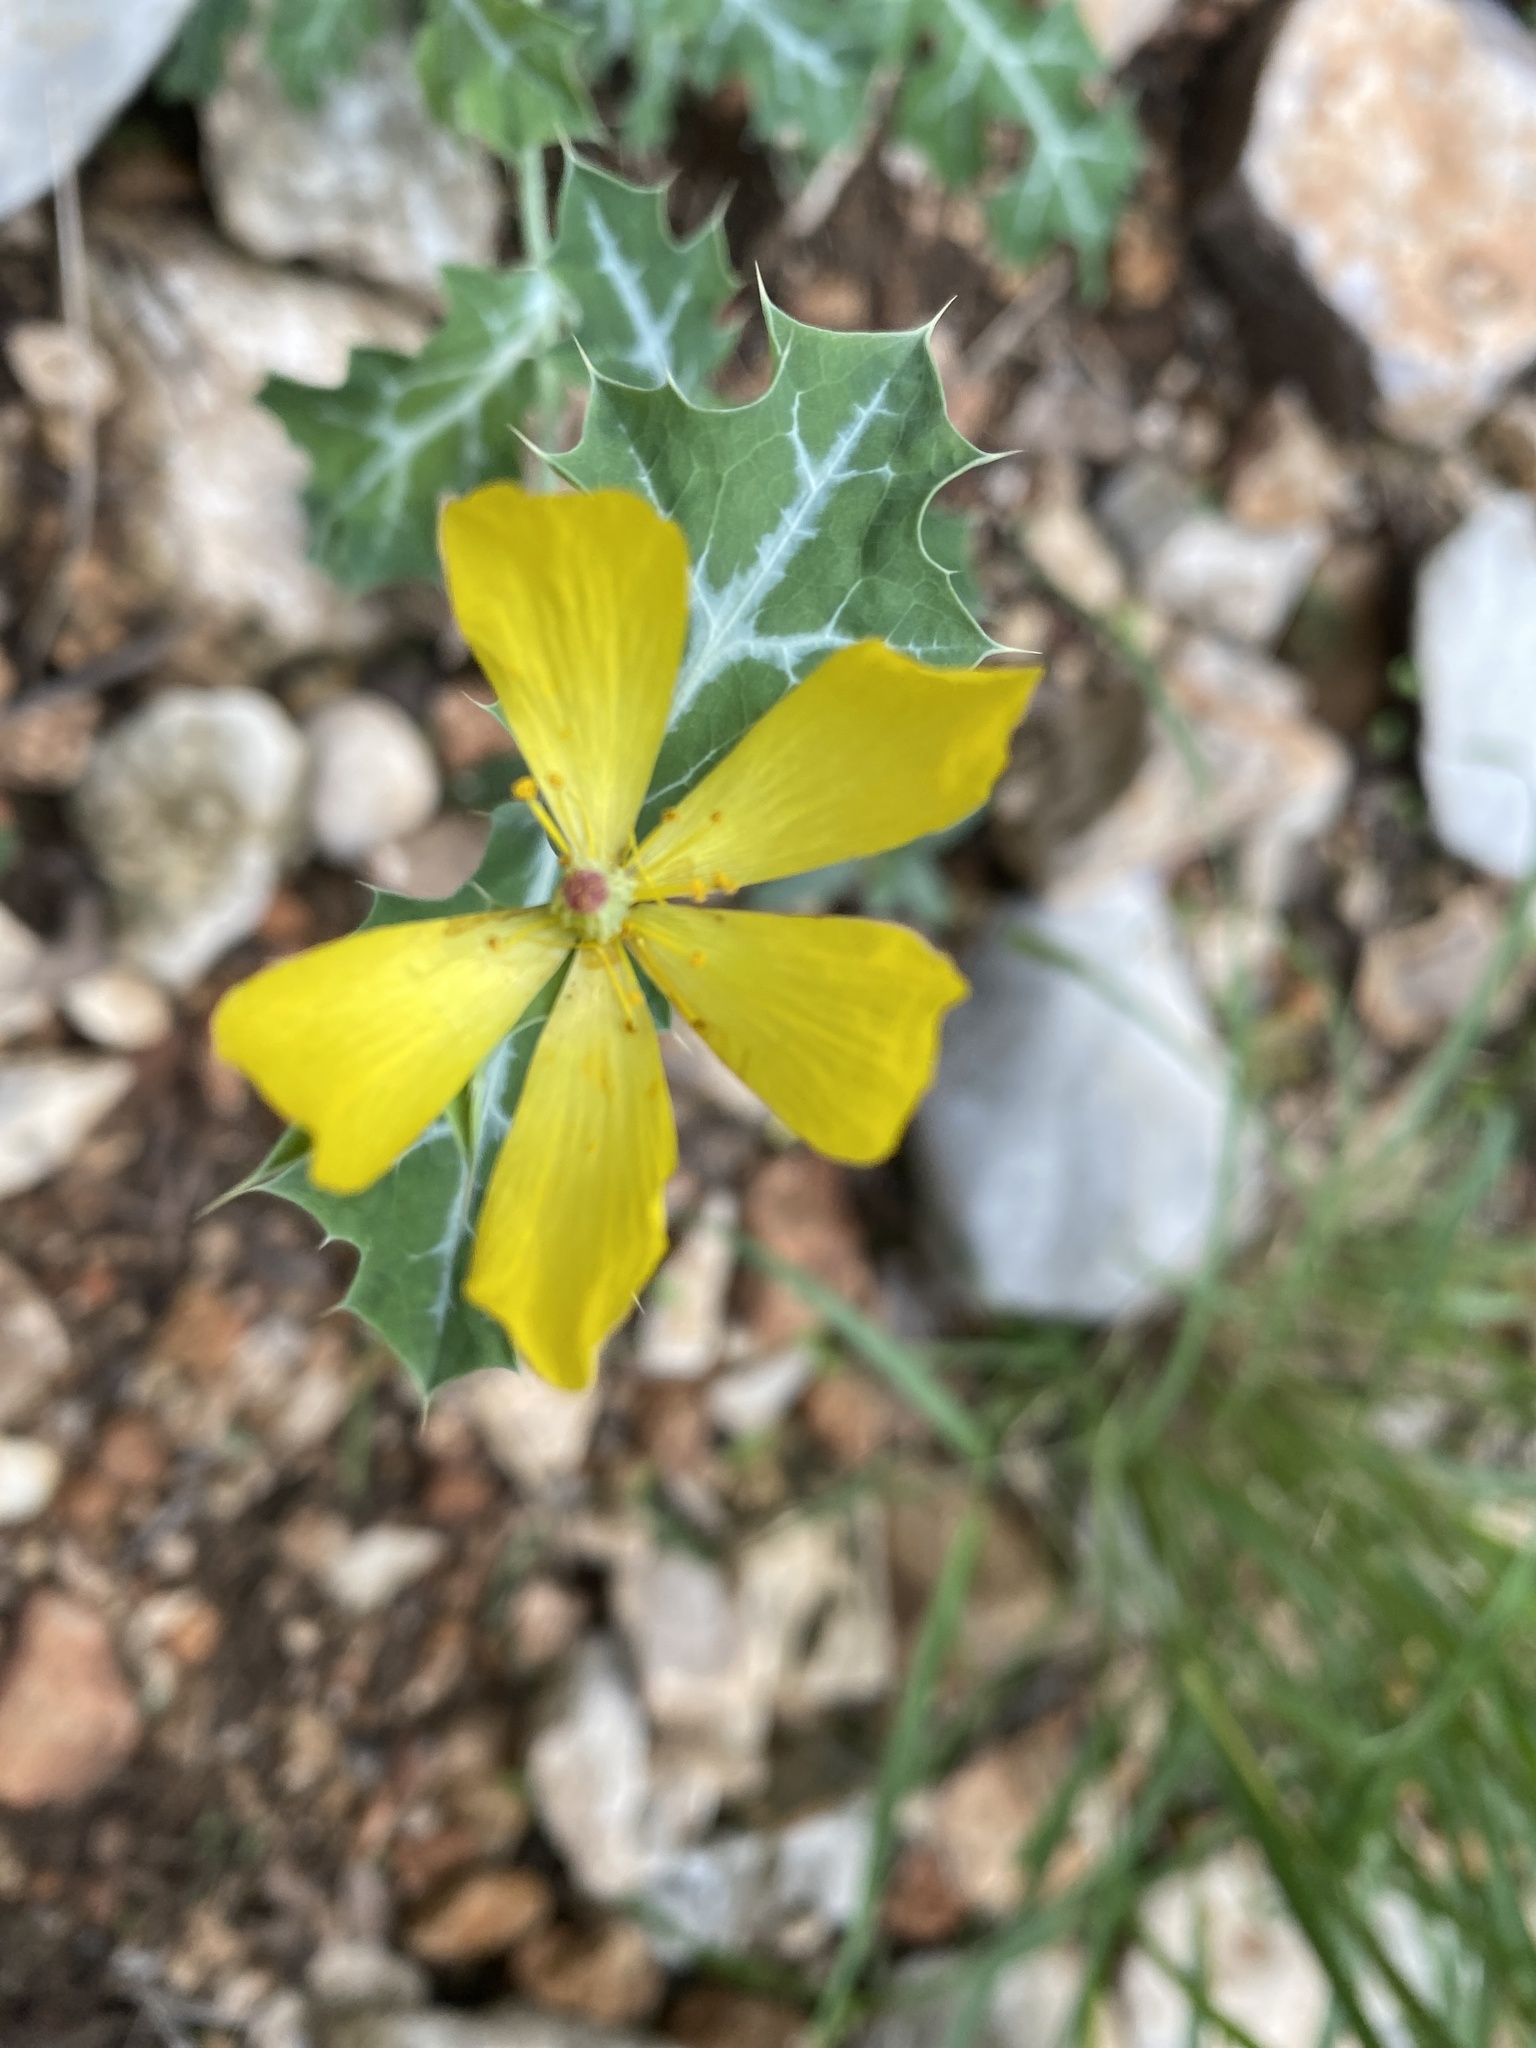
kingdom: Plantae
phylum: Tracheophyta
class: Magnoliopsida
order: Ranunculales
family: Papaveraceae
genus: Argemone
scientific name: Argemone mexicana
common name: Mexican poppy
